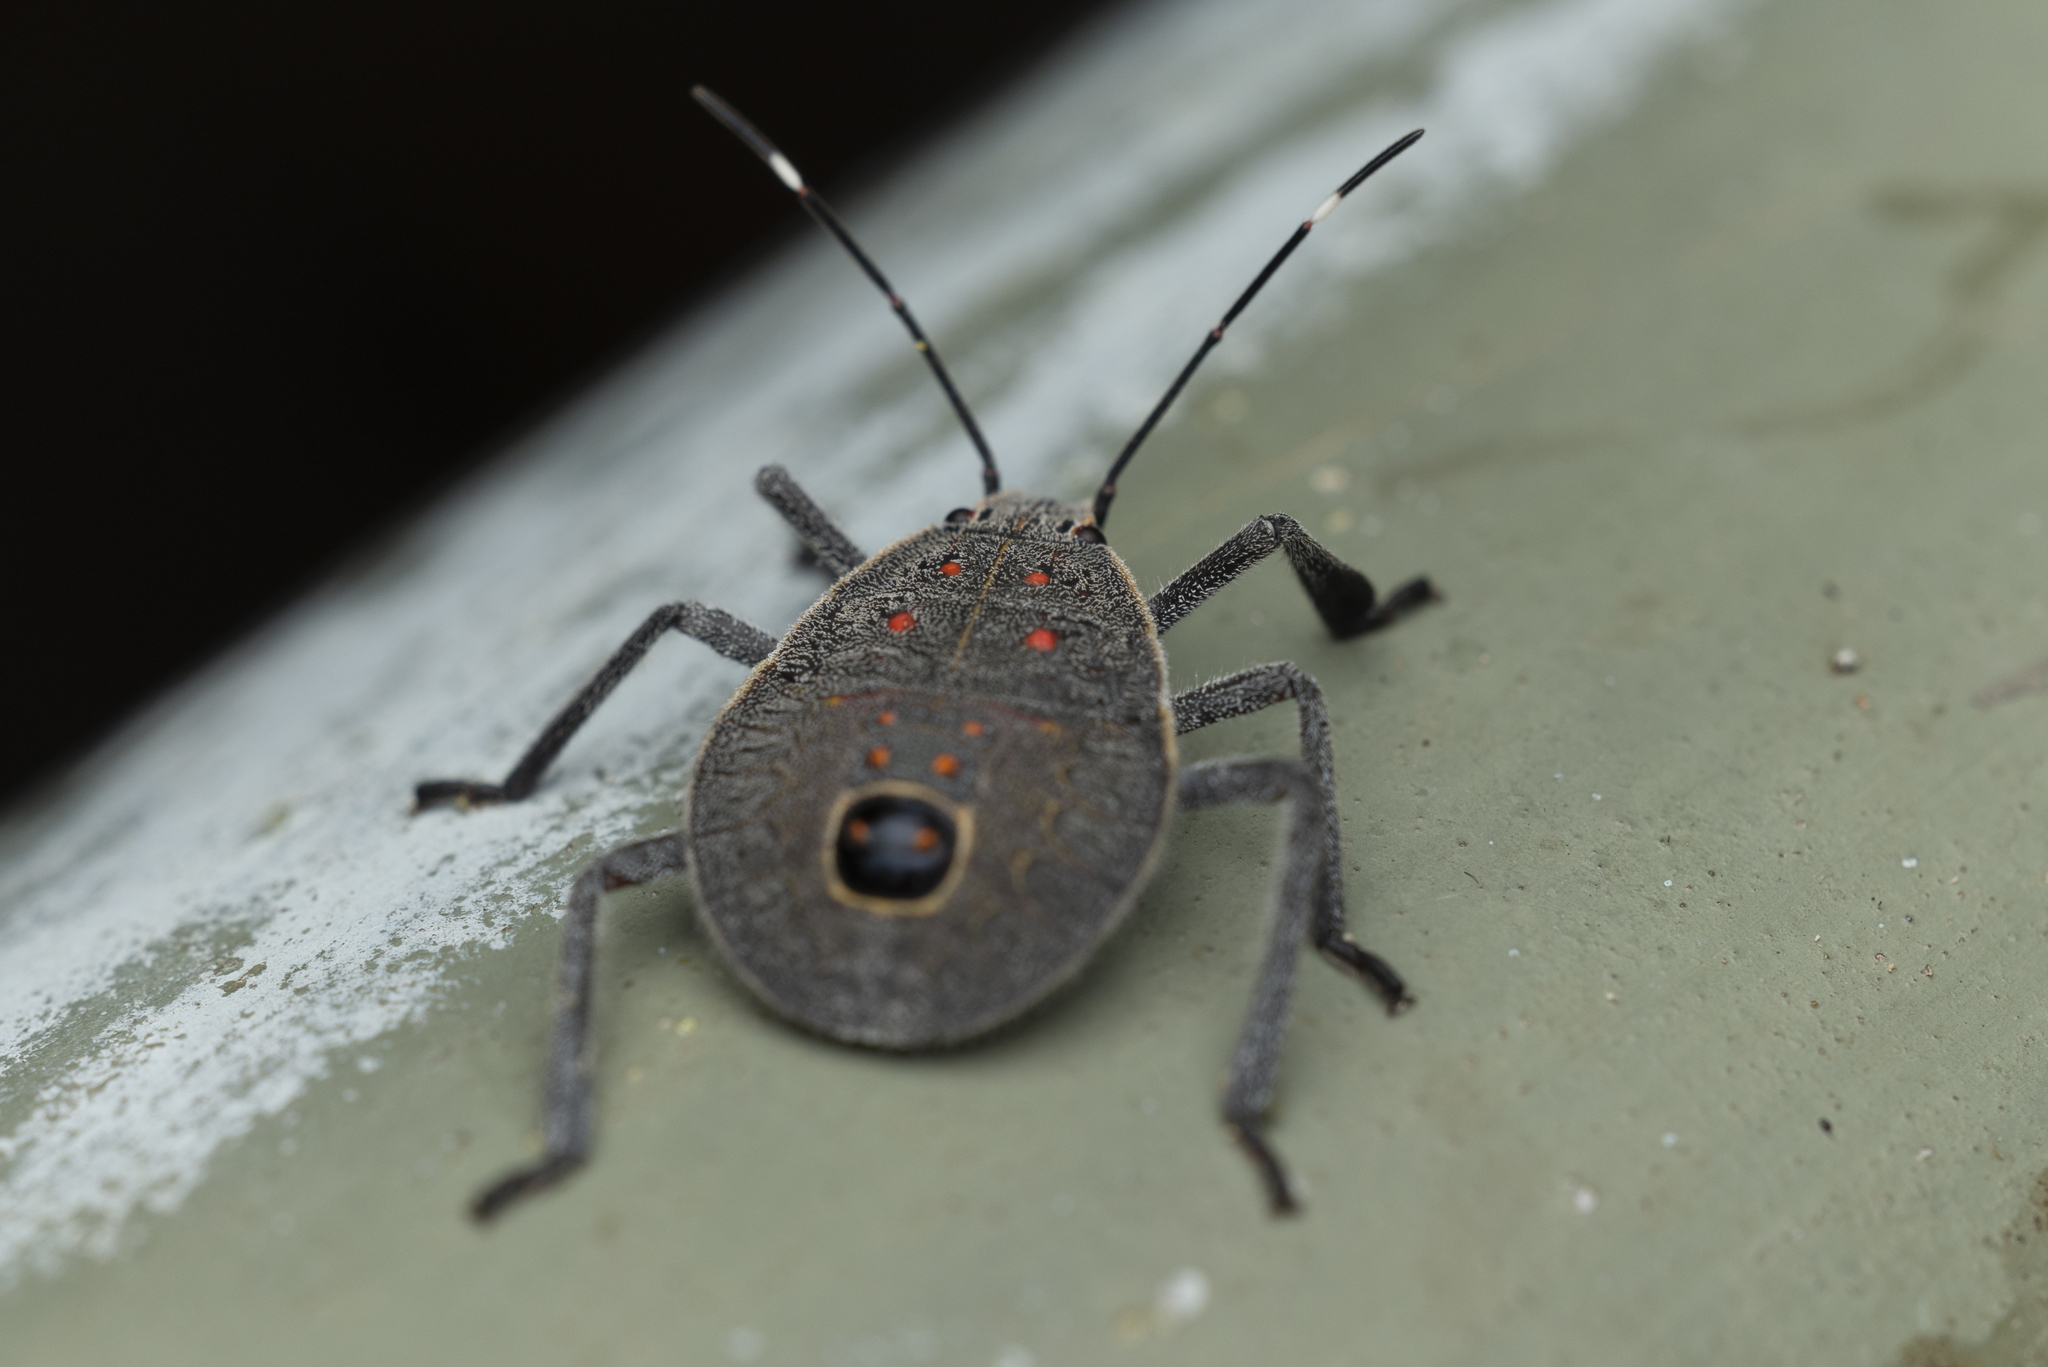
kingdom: Animalia
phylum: Arthropoda
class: Insecta
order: Hemiptera
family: Pentatomidae
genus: Erthesina
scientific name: Erthesina fullo
